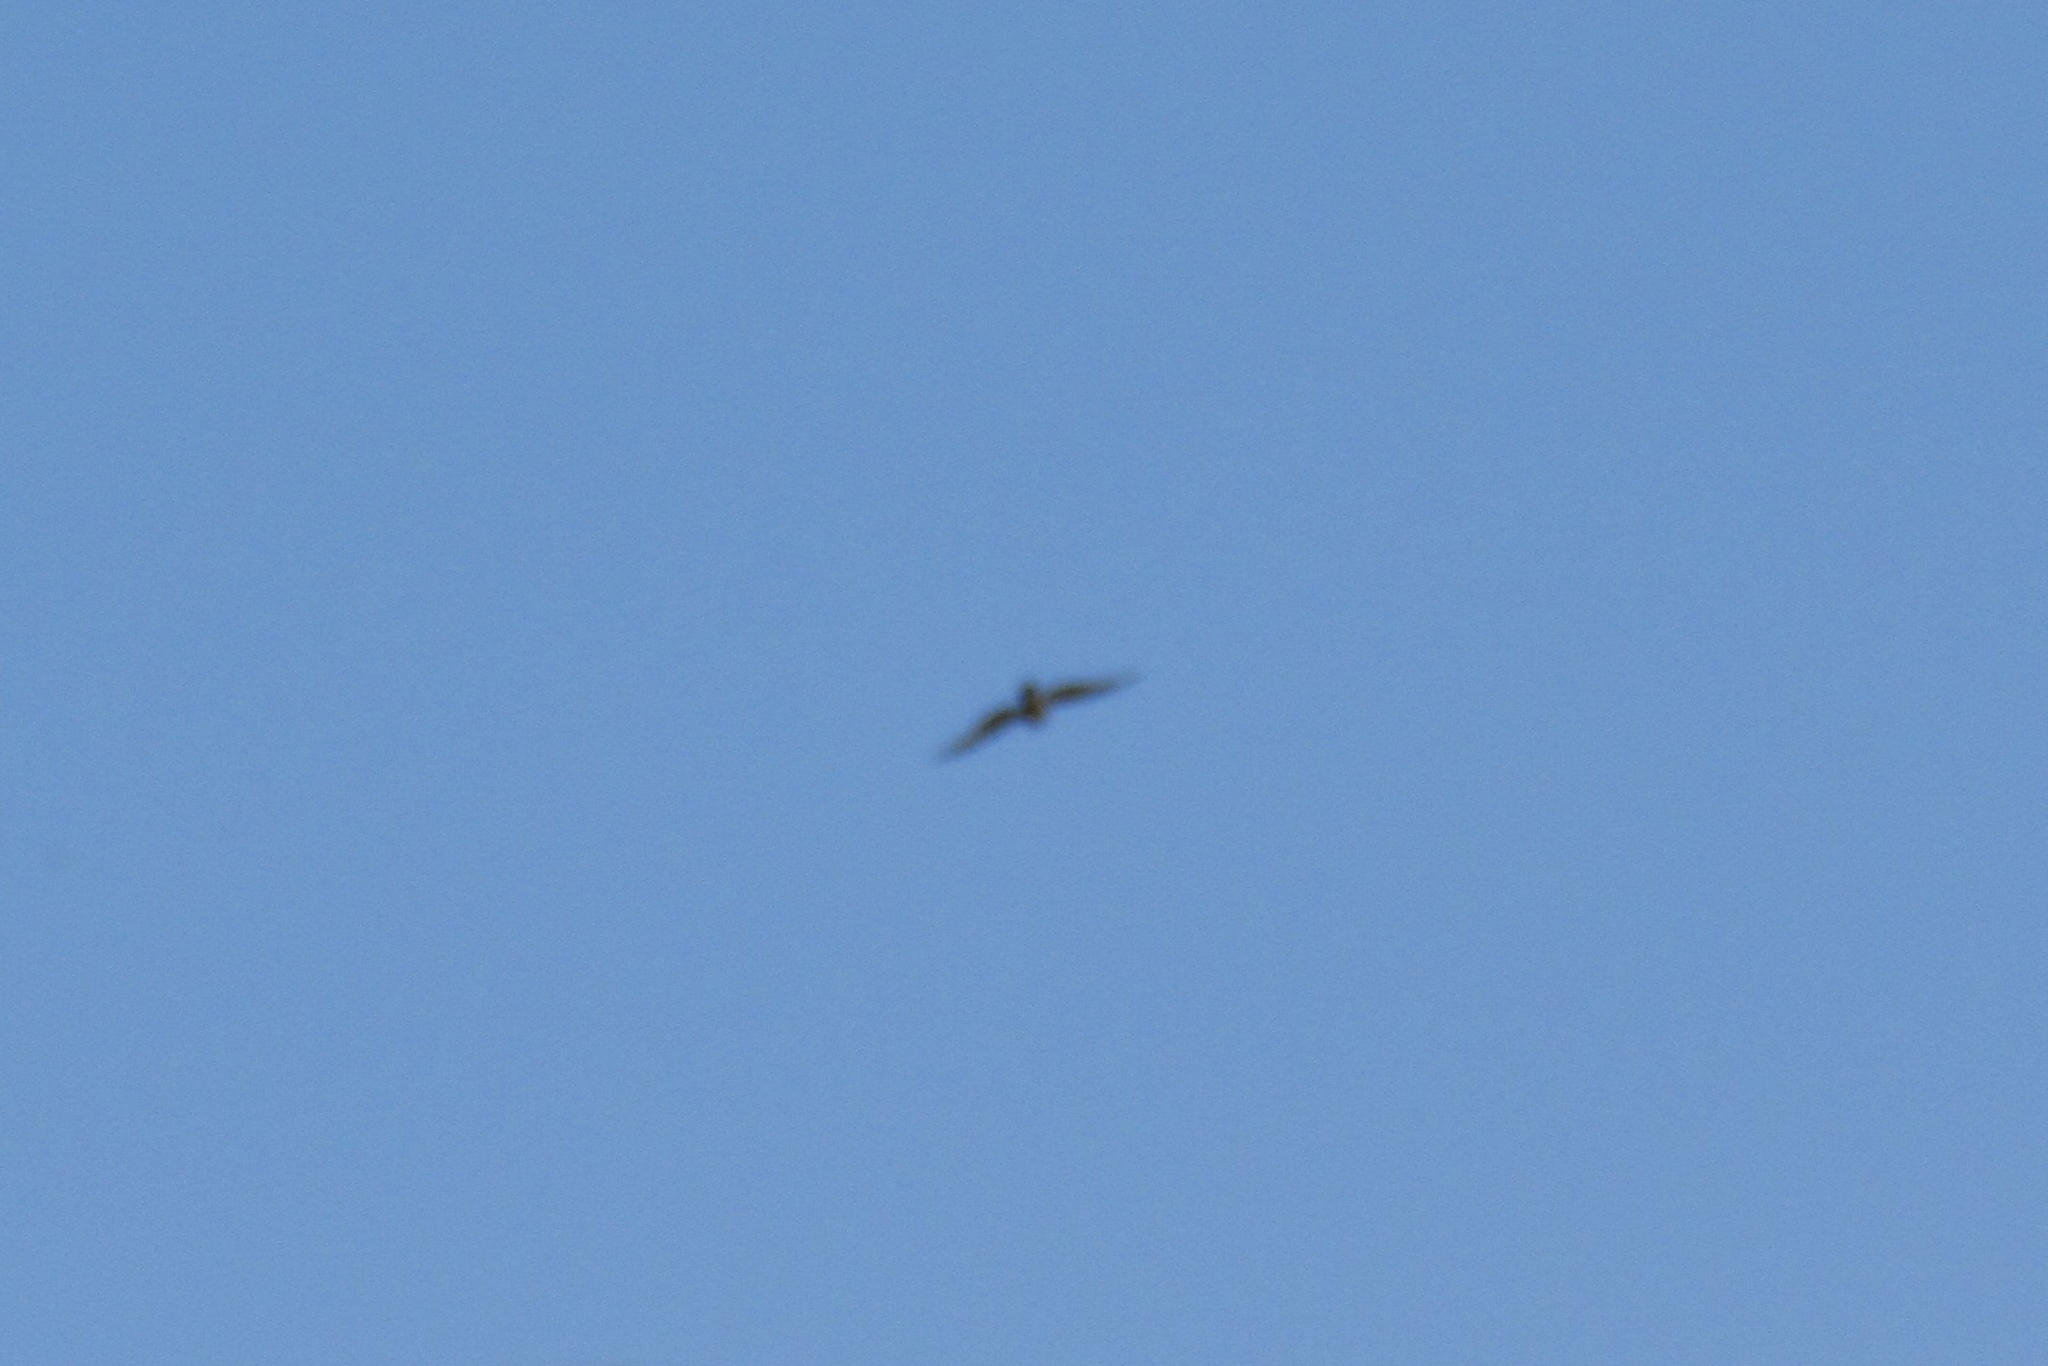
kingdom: Animalia
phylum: Chordata
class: Aves
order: Accipitriformes
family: Accipitridae
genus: Accipiter
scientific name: Accipiter cooperii
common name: Cooper's hawk
